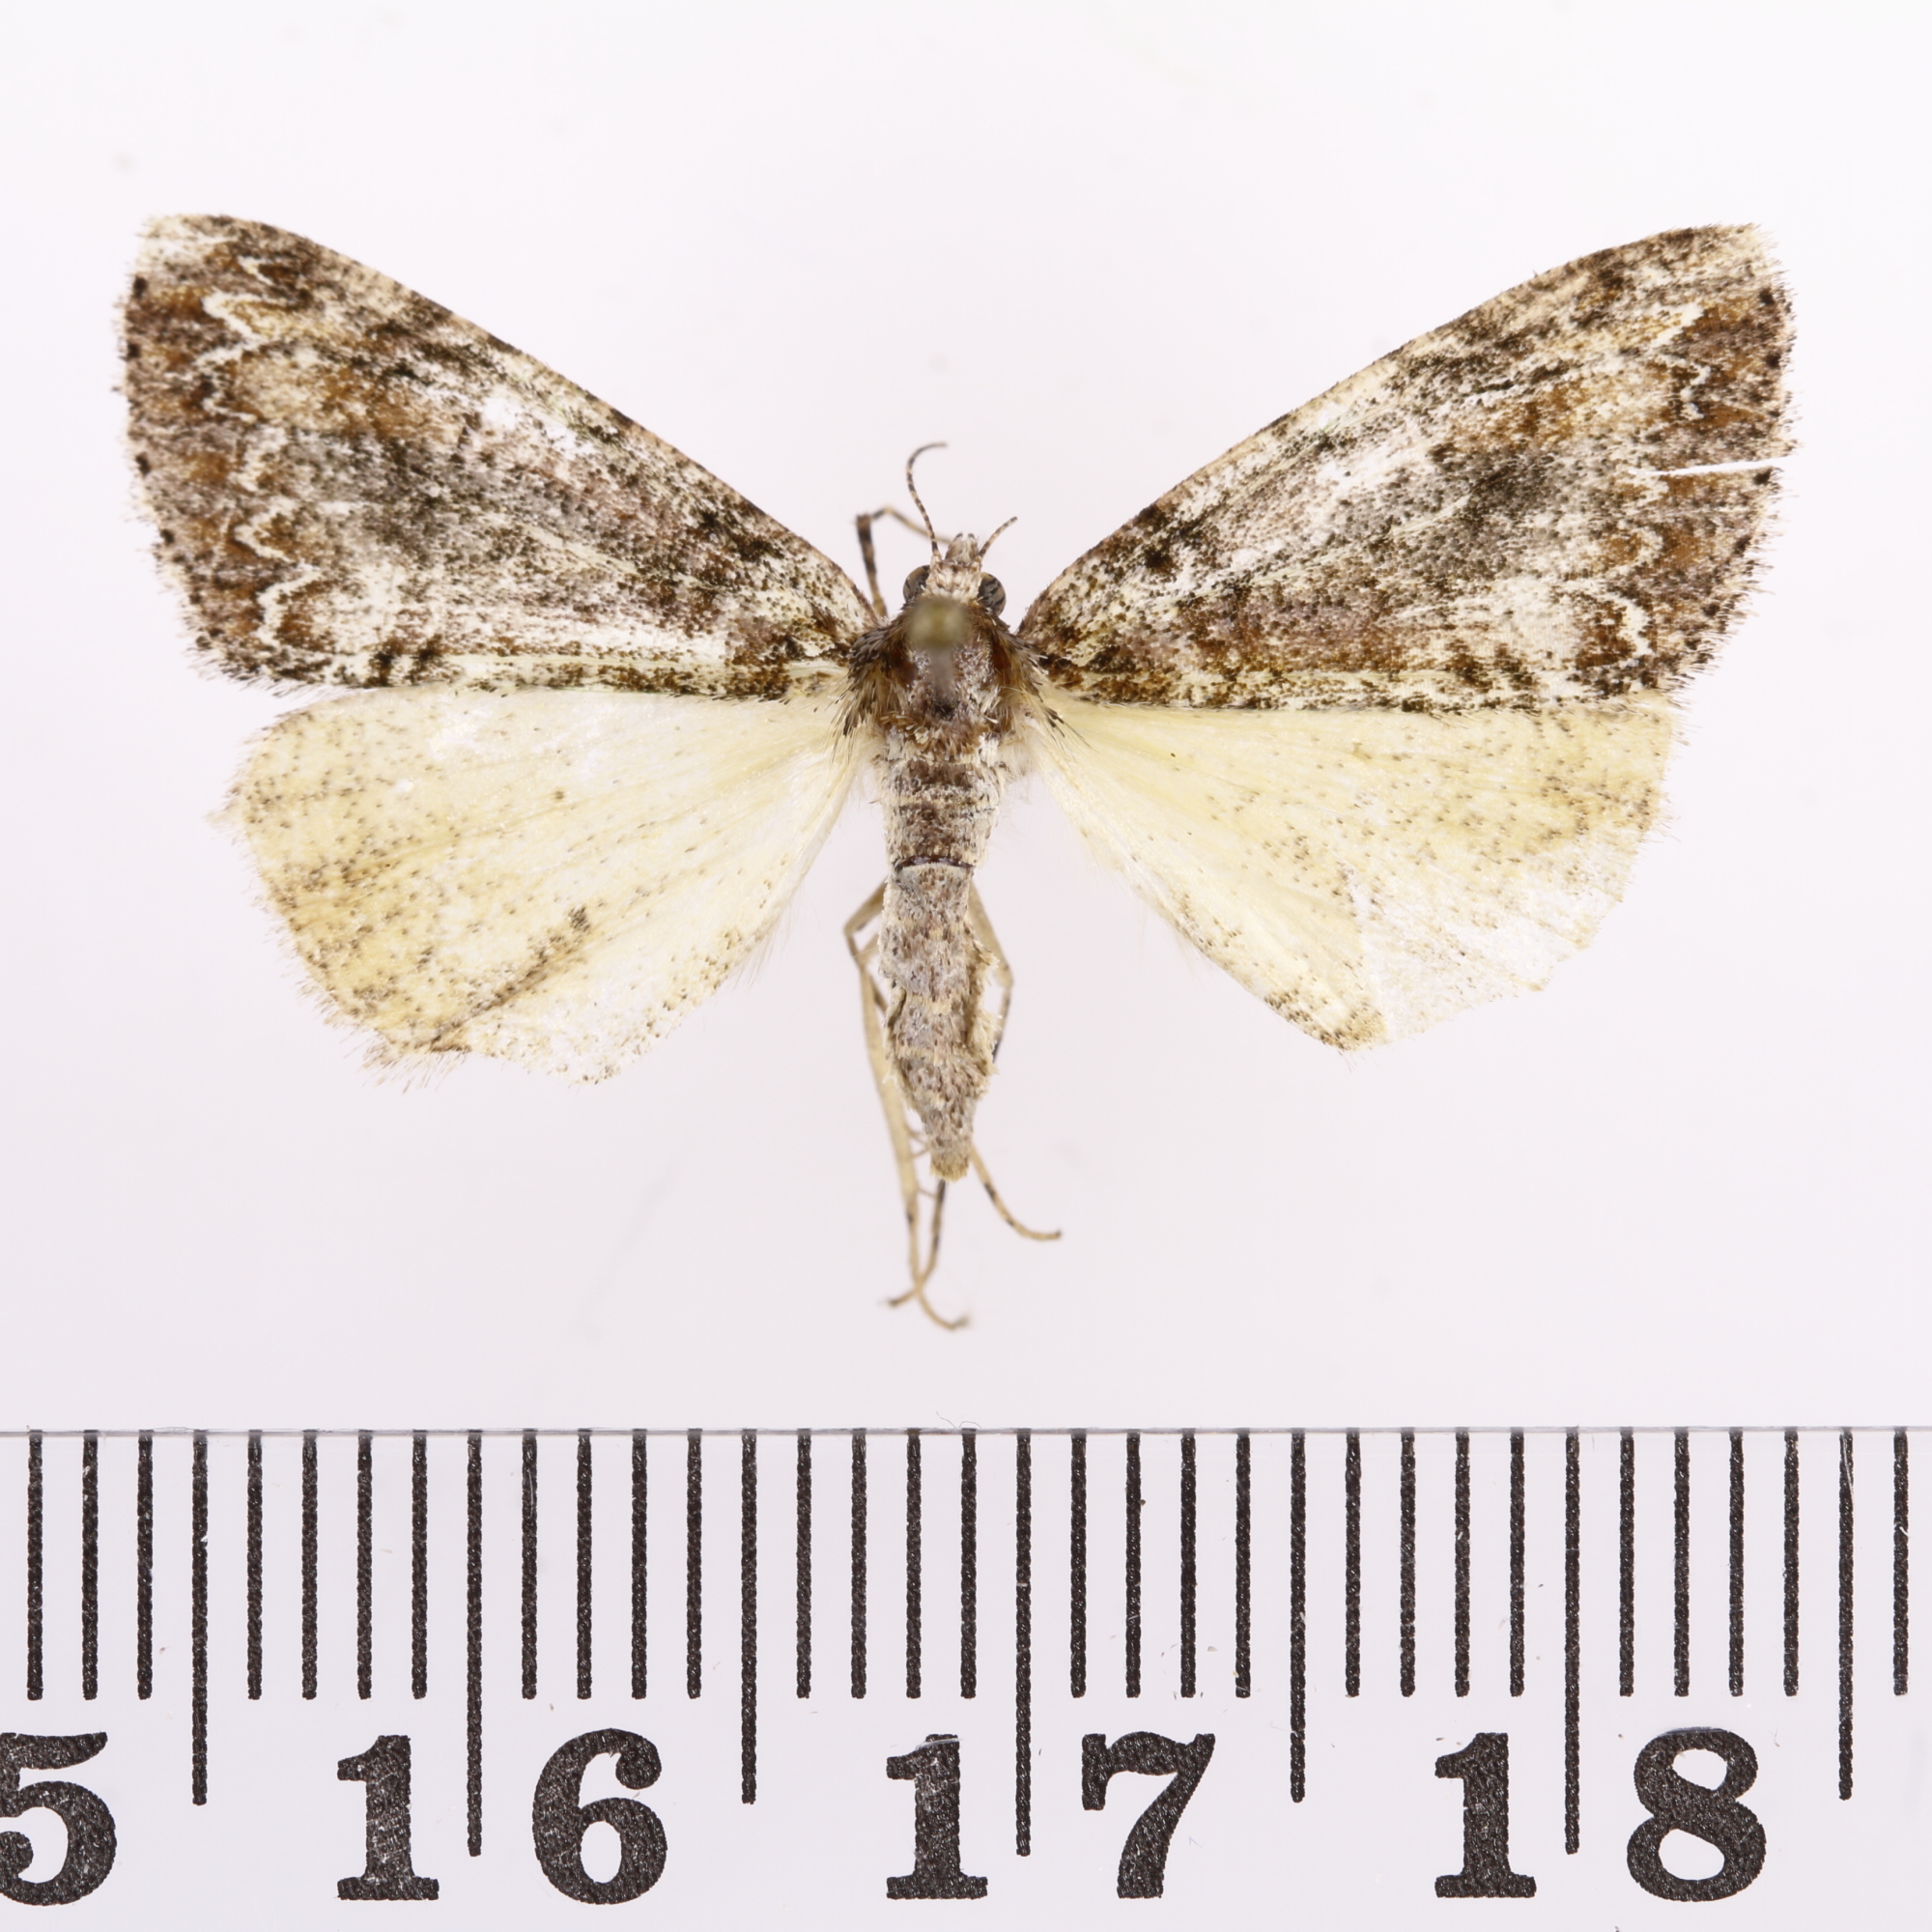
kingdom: Animalia
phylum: Arthropoda
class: Insecta
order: Lepidoptera
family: Geometridae
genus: Pseudocoremia
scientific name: Pseudocoremia suavis
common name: Common forest looper
